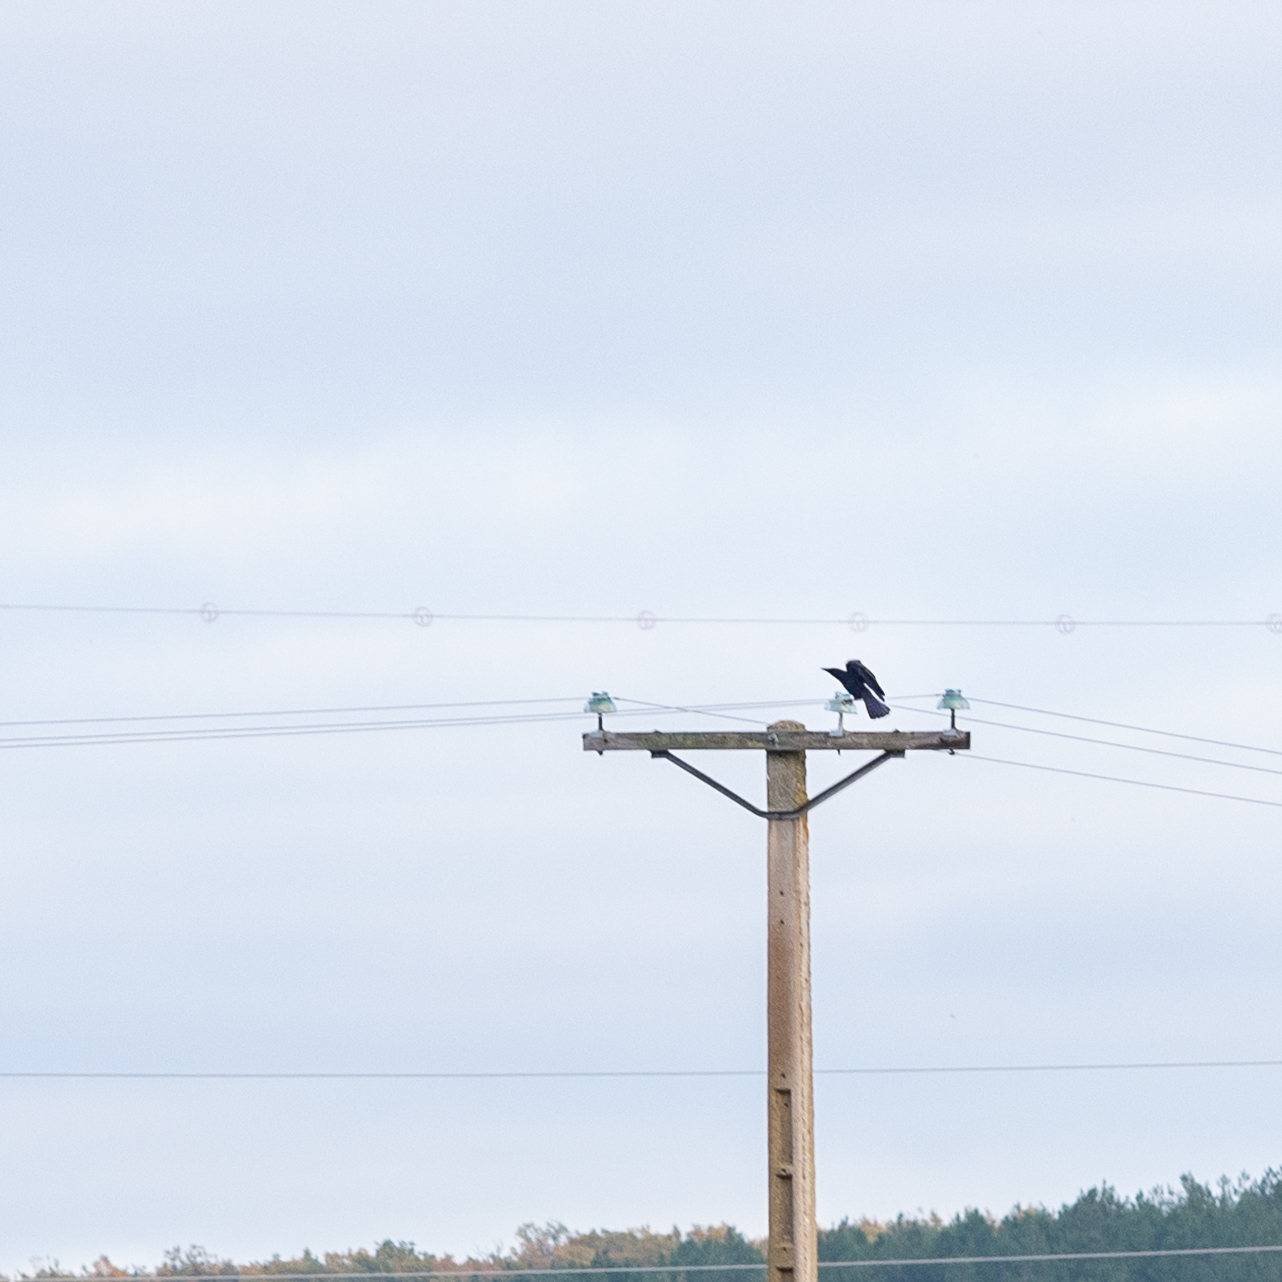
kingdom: Animalia
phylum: Chordata
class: Aves
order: Passeriformes
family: Corvidae
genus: Corvus
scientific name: Corvus corone
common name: Carrion crow
